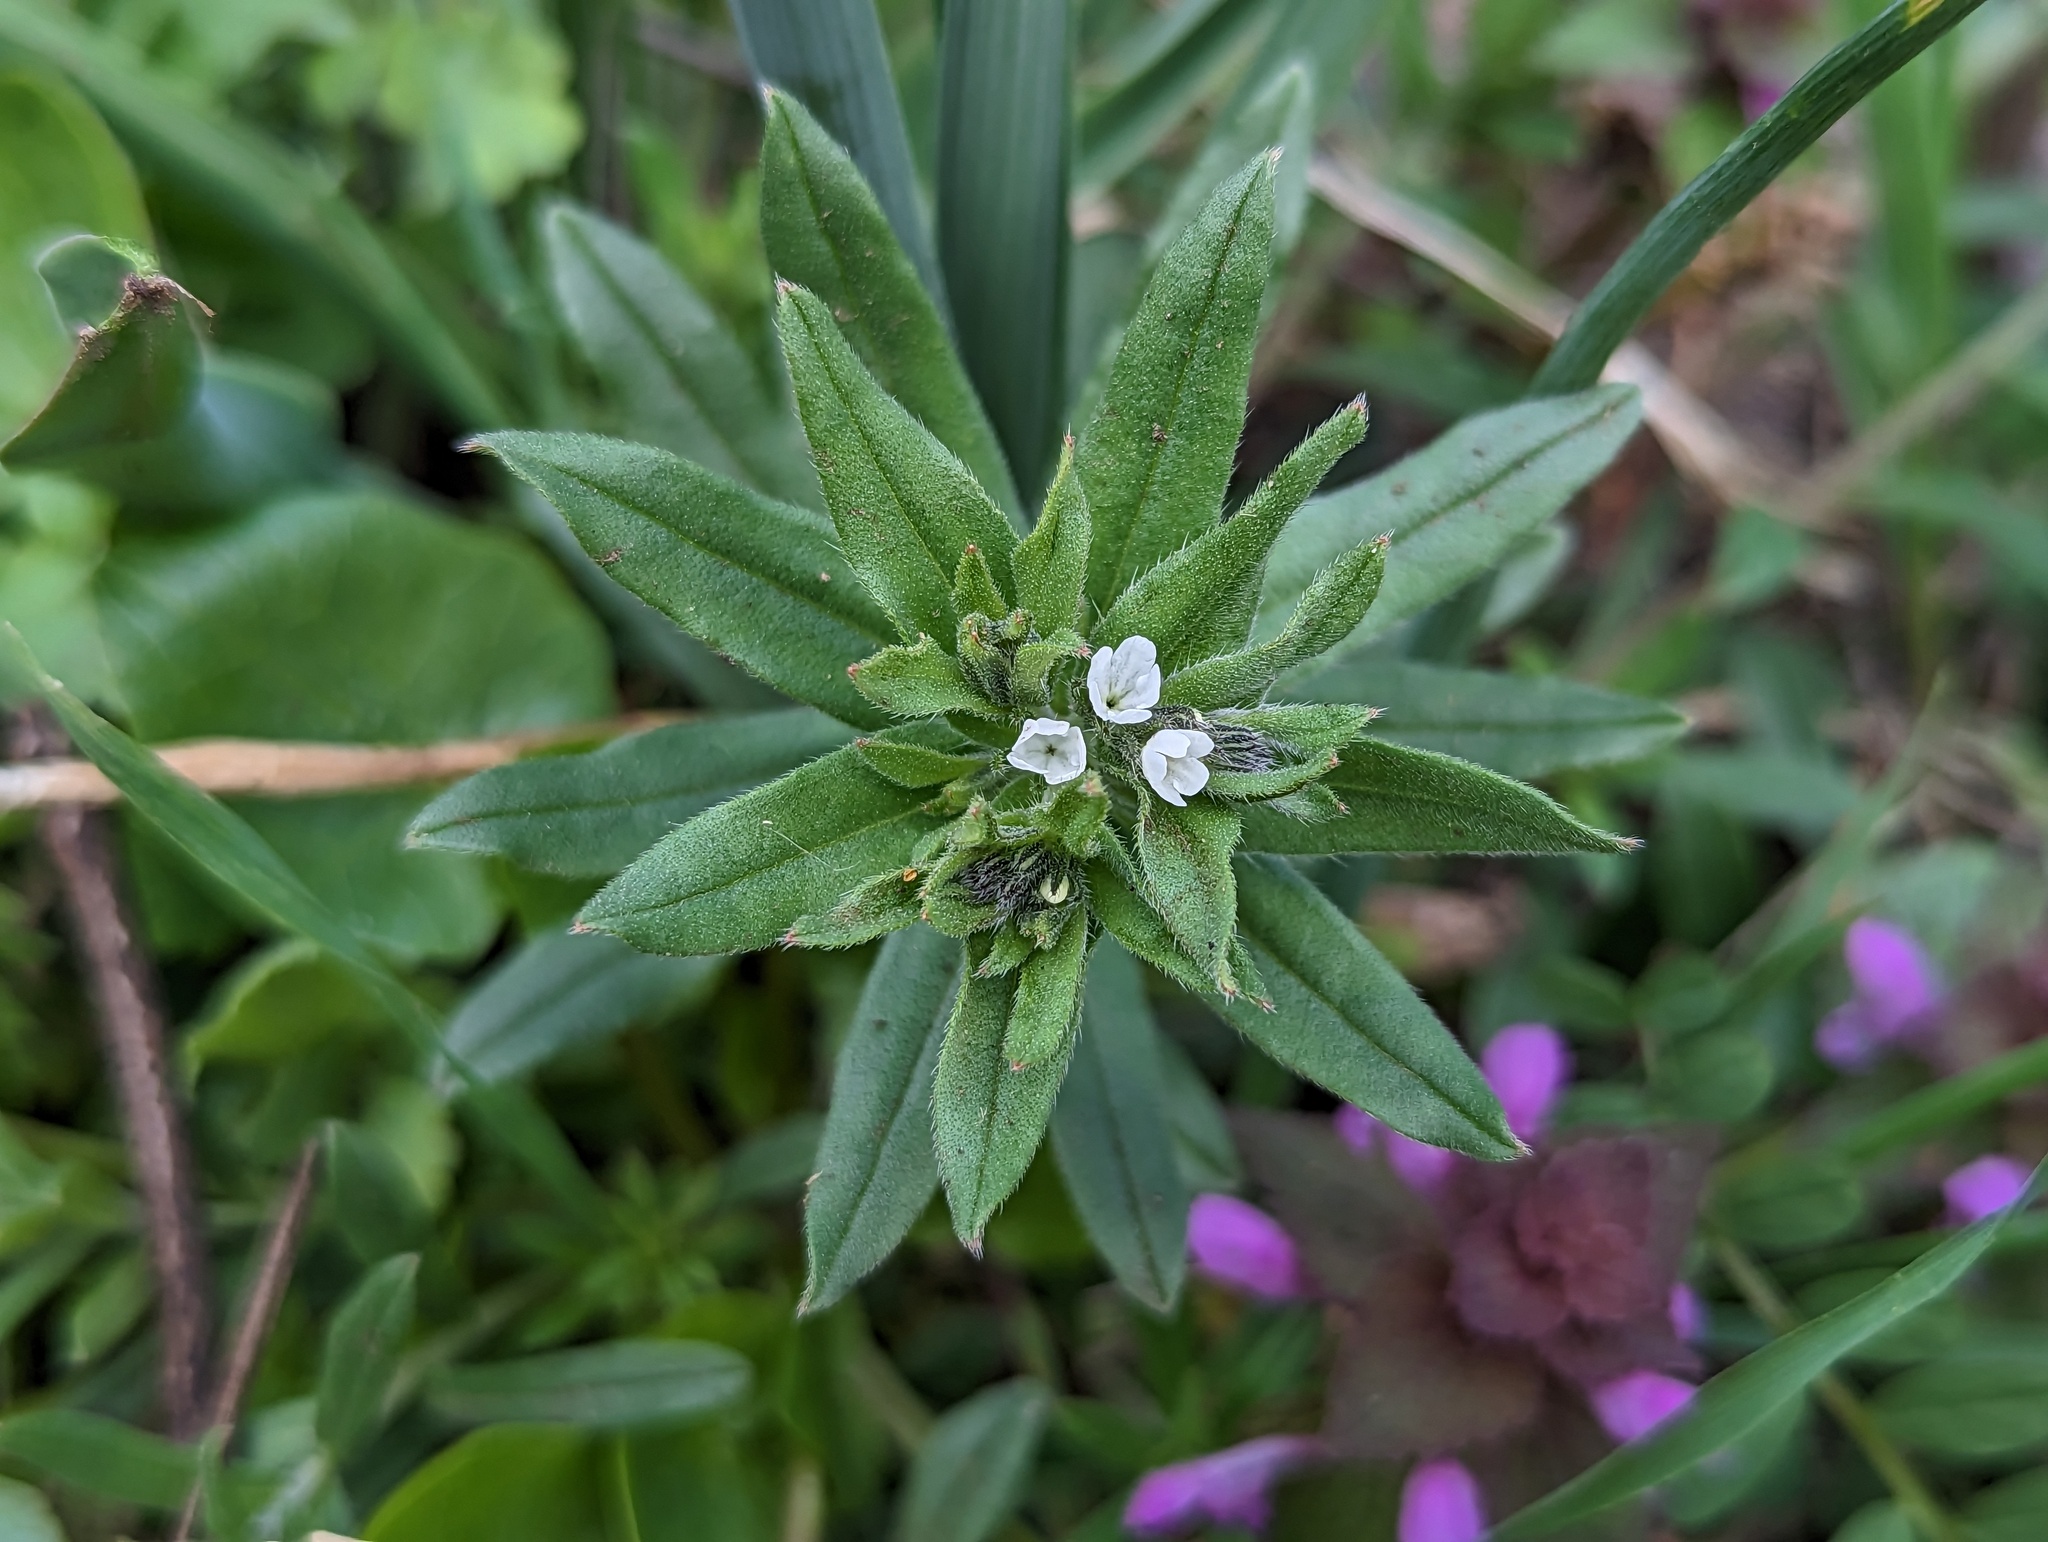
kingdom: Plantae
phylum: Tracheophyta
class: Magnoliopsida
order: Boraginales
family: Boraginaceae
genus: Buglossoides
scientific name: Buglossoides arvensis
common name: Corn gromwell
